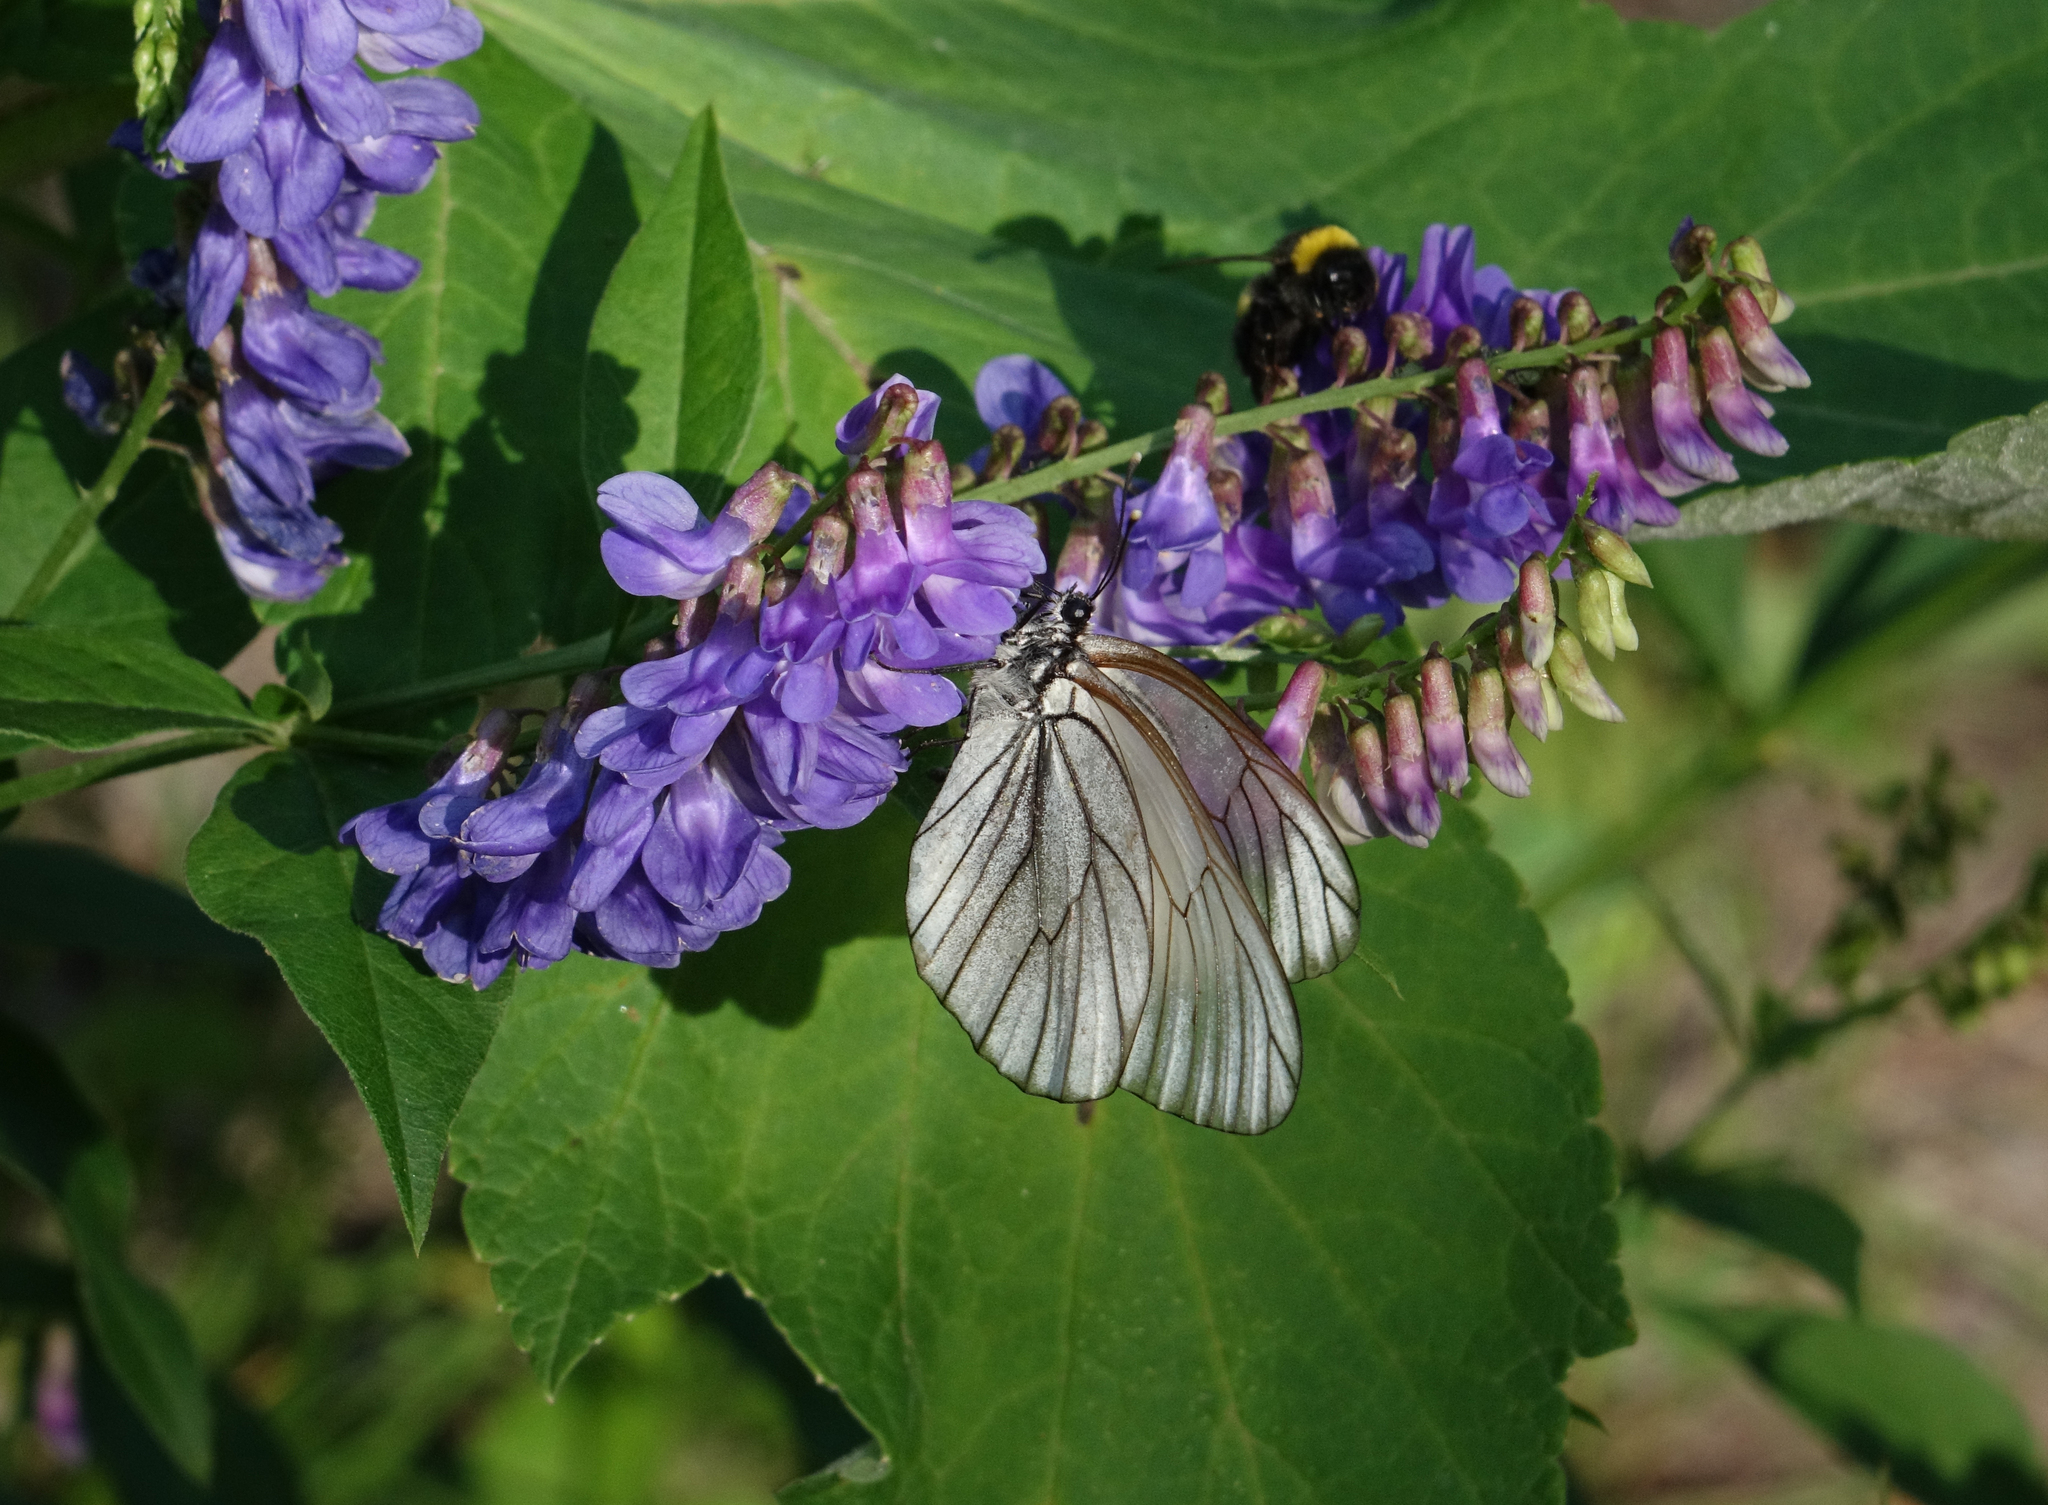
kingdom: Plantae
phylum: Tracheophyta
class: Magnoliopsida
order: Fabales
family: Fabaceae
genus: Vicia
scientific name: Vicia unijuga
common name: Two-leaf vetch
